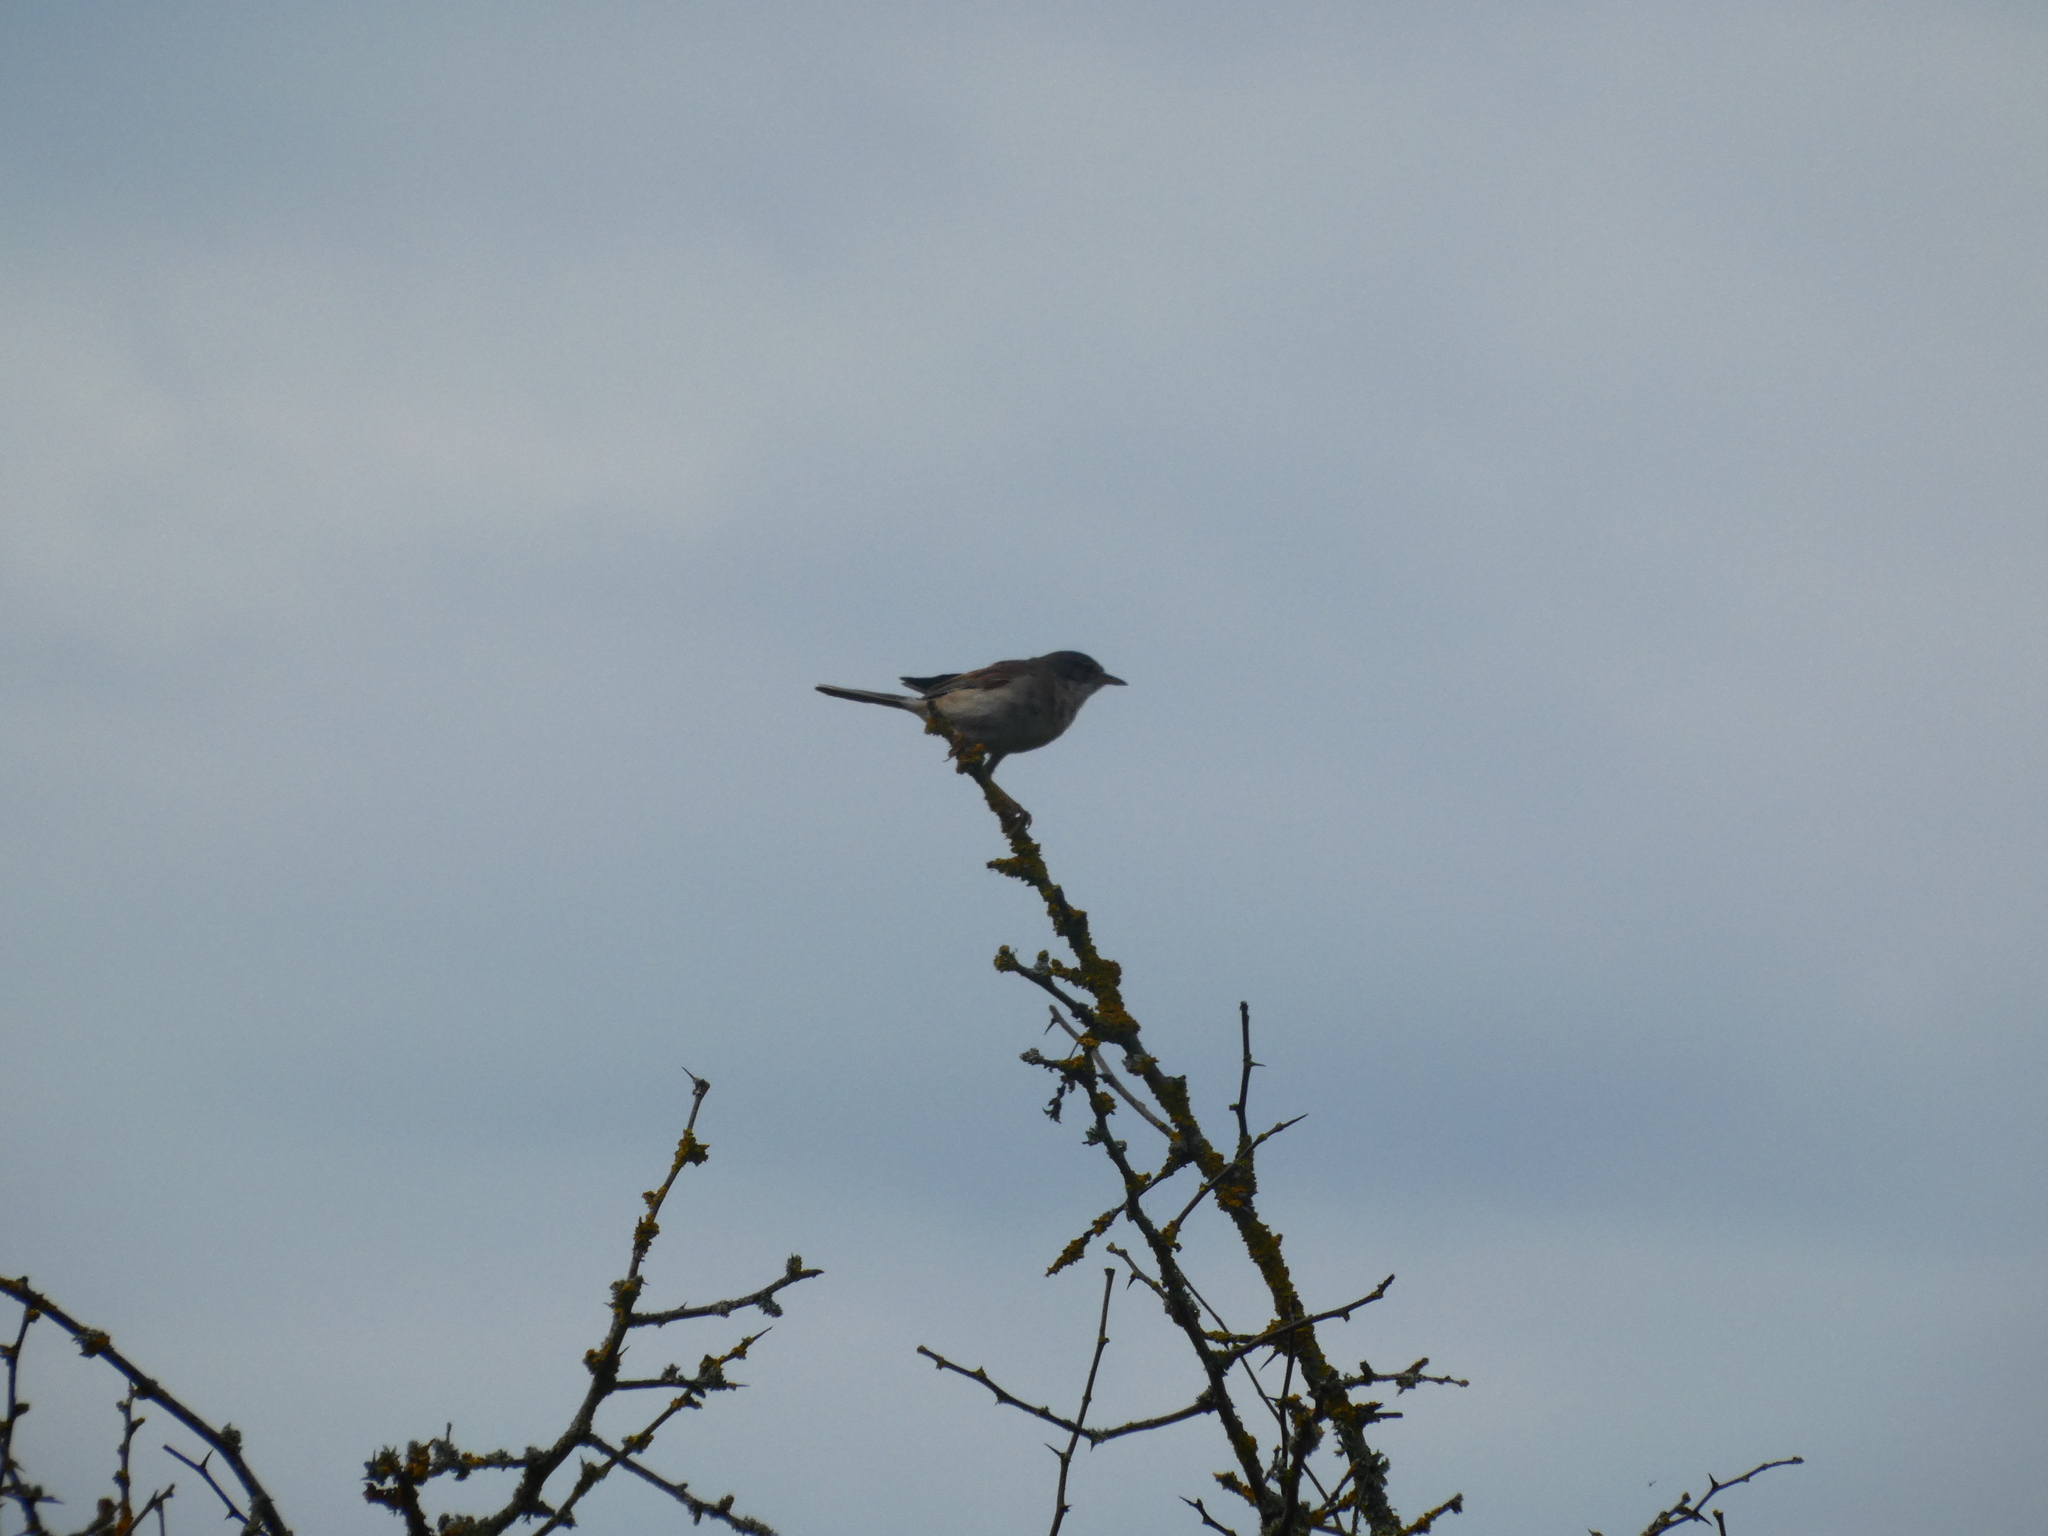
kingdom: Animalia
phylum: Chordata
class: Aves
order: Passeriformes
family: Sylviidae
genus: Sylvia
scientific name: Sylvia communis
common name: Common whitethroat
